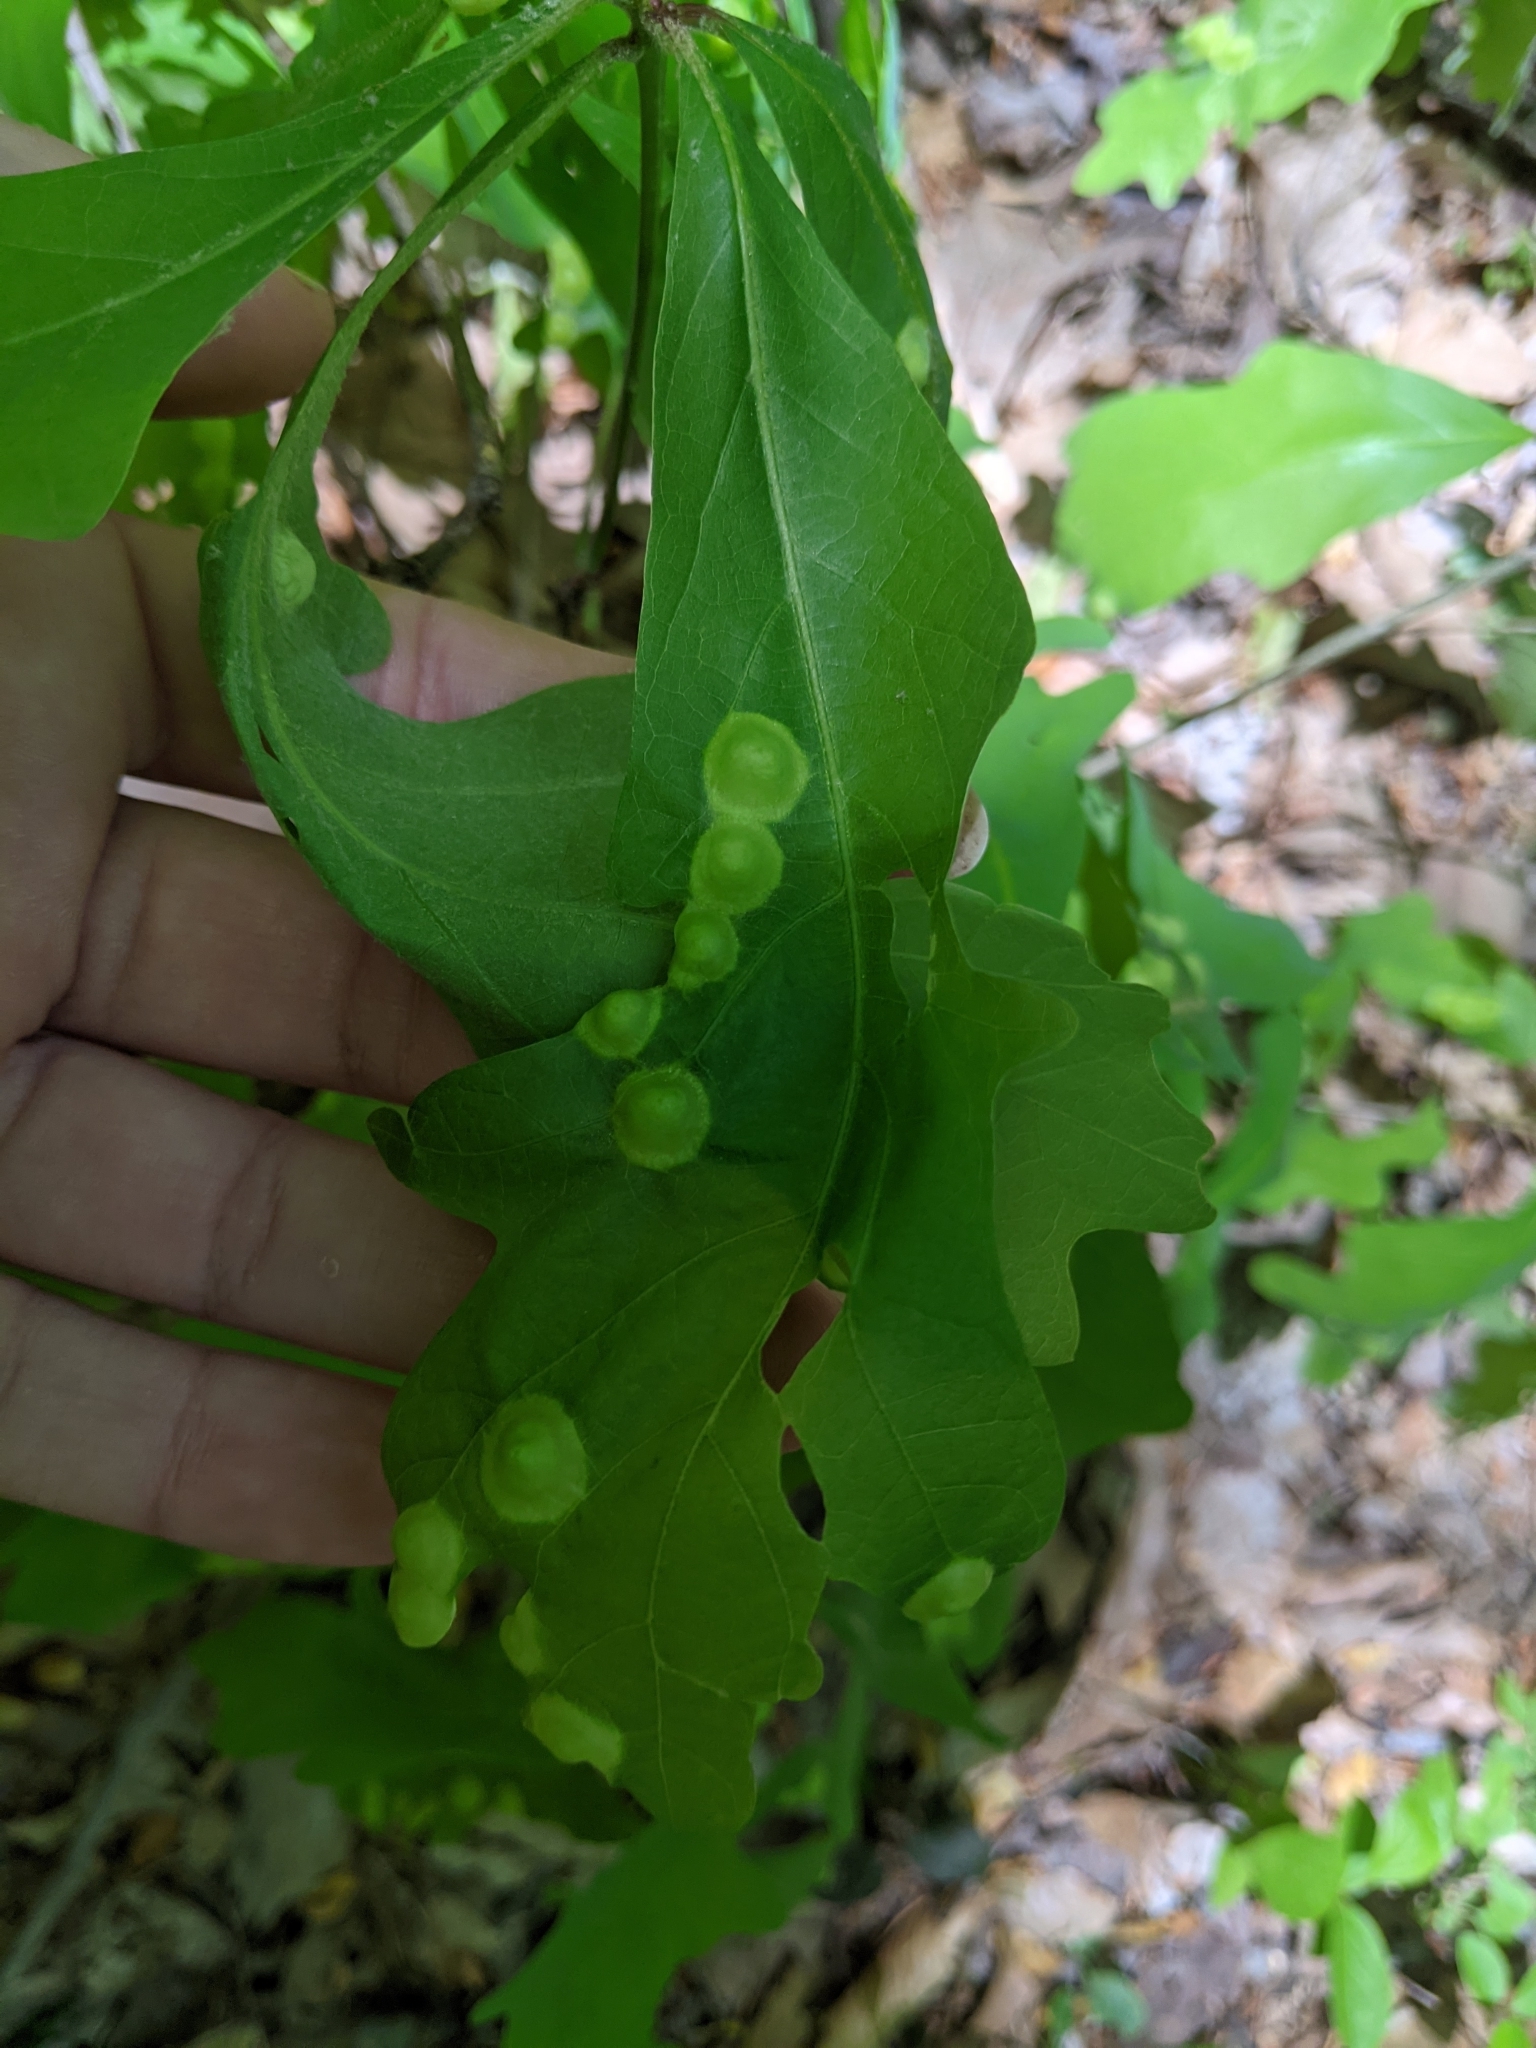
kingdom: Animalia
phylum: Arthropoda
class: Insecta
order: Hymenoptera
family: Cynipidae
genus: Callirhytis
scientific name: Callirhytis
